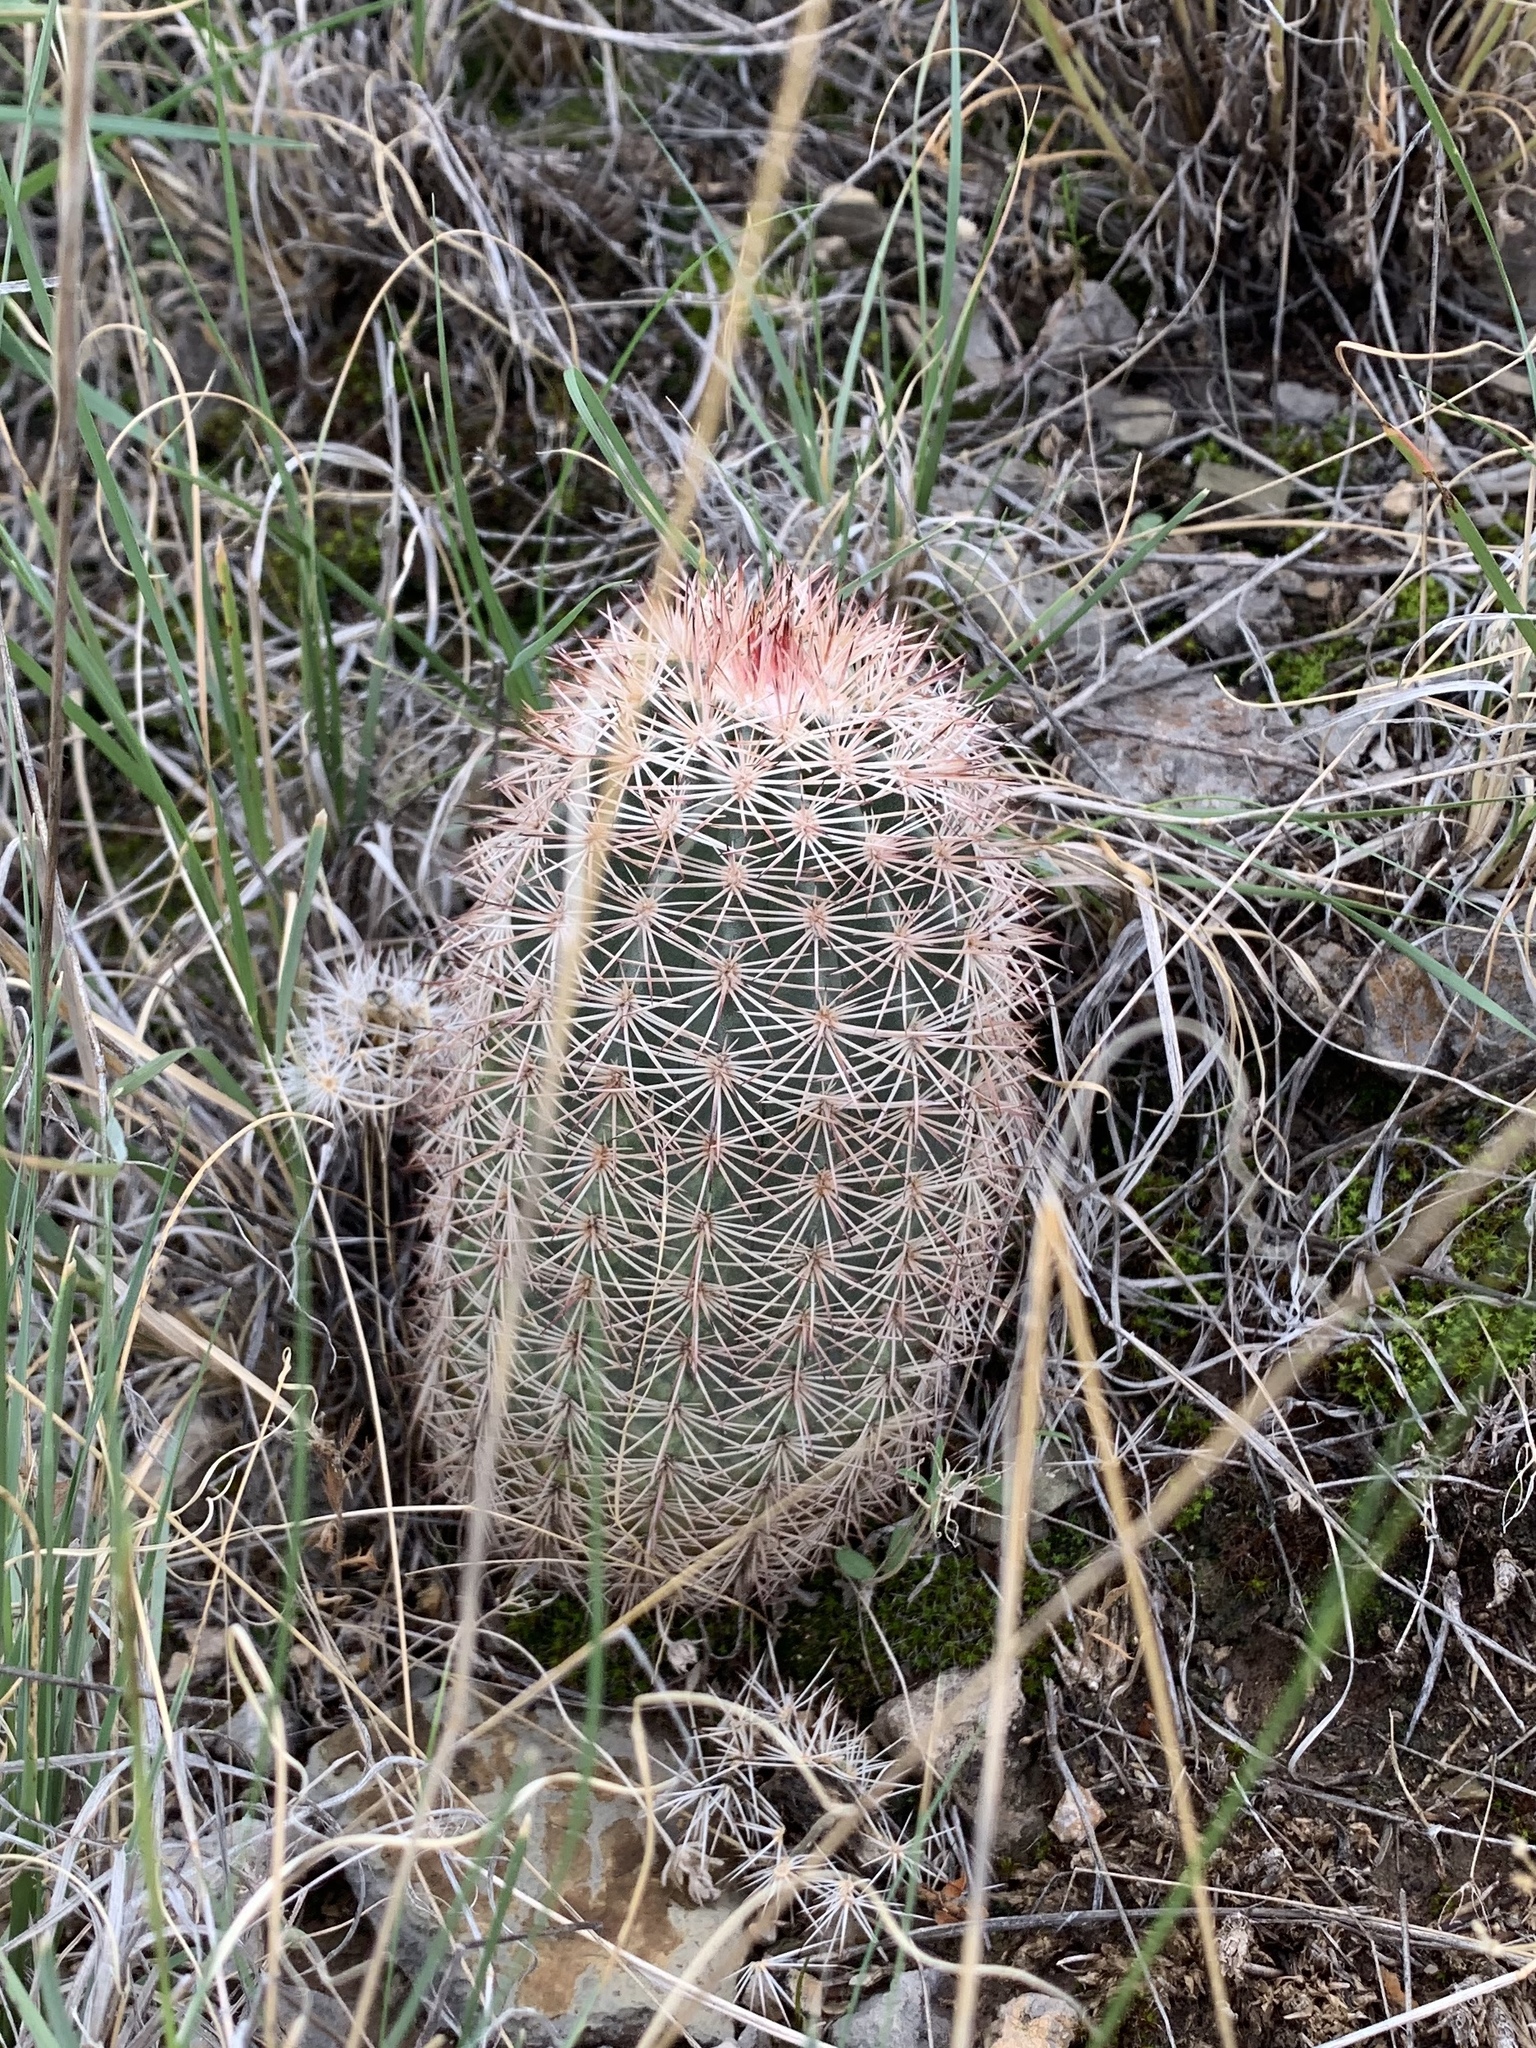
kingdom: Plantae
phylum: Tracheophyta
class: Magnoliopsida
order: Caryophyllales
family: Cactaceae
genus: Echinocereus
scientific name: Echinocereus dasyacanthus
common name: Spiny hedgehog cactus
